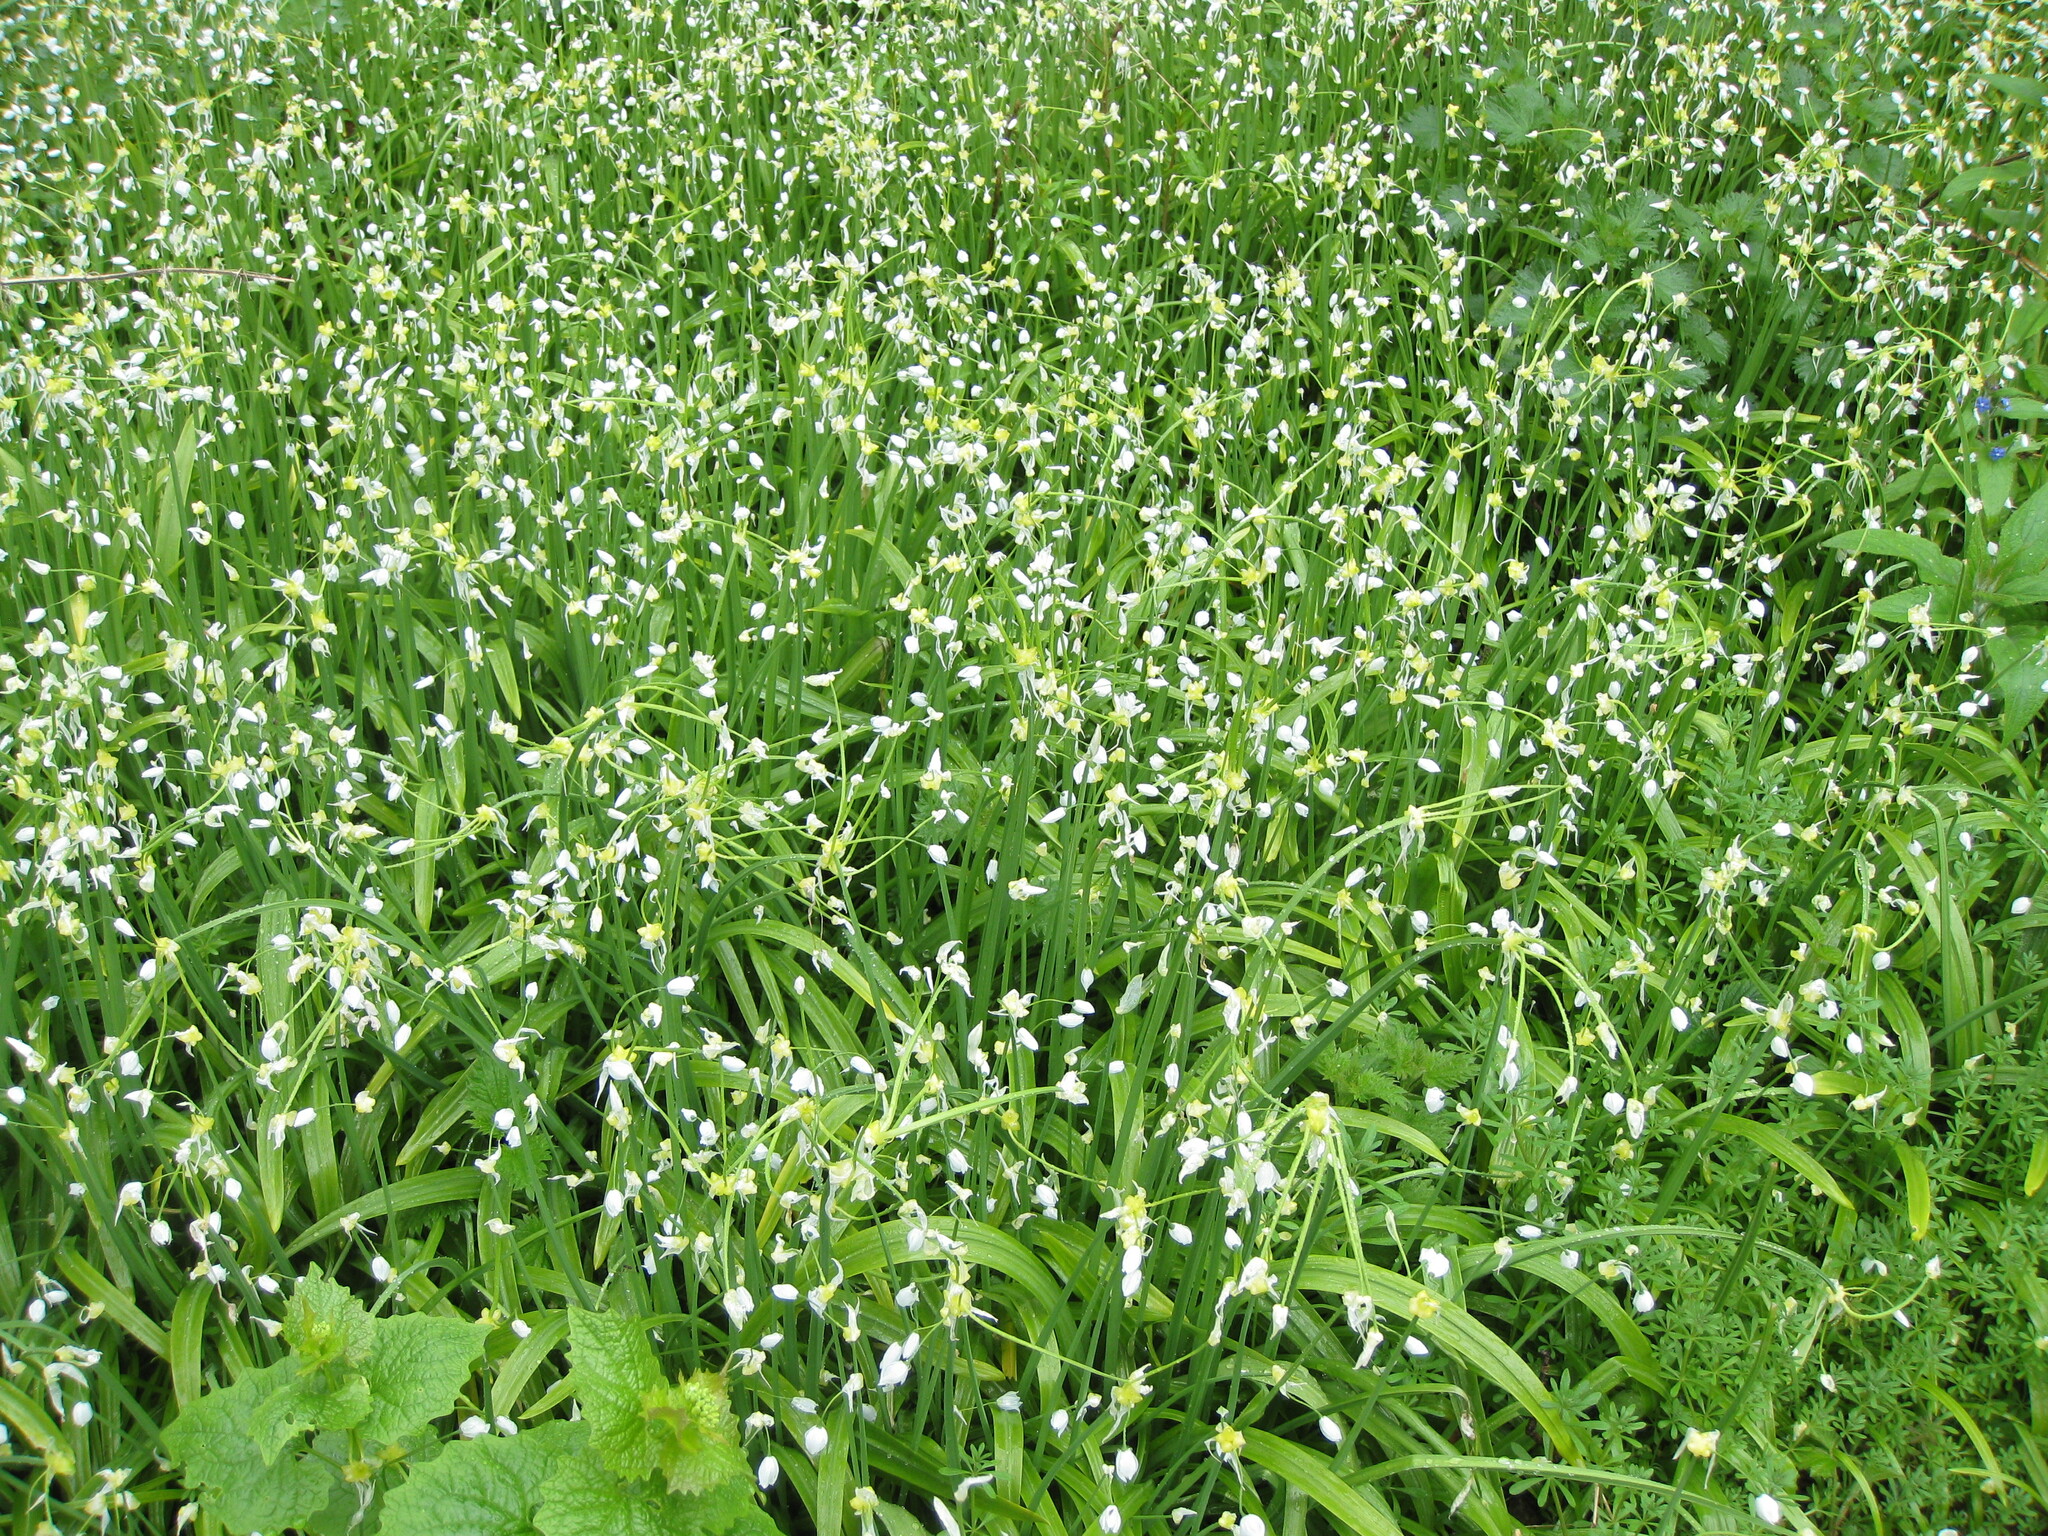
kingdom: Plantae
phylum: Tracheophyta
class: Liliopsida
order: Asparagales
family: Amaryllidaceae
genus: Allium
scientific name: Allium paradoxum
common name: Few-flowered garlic
